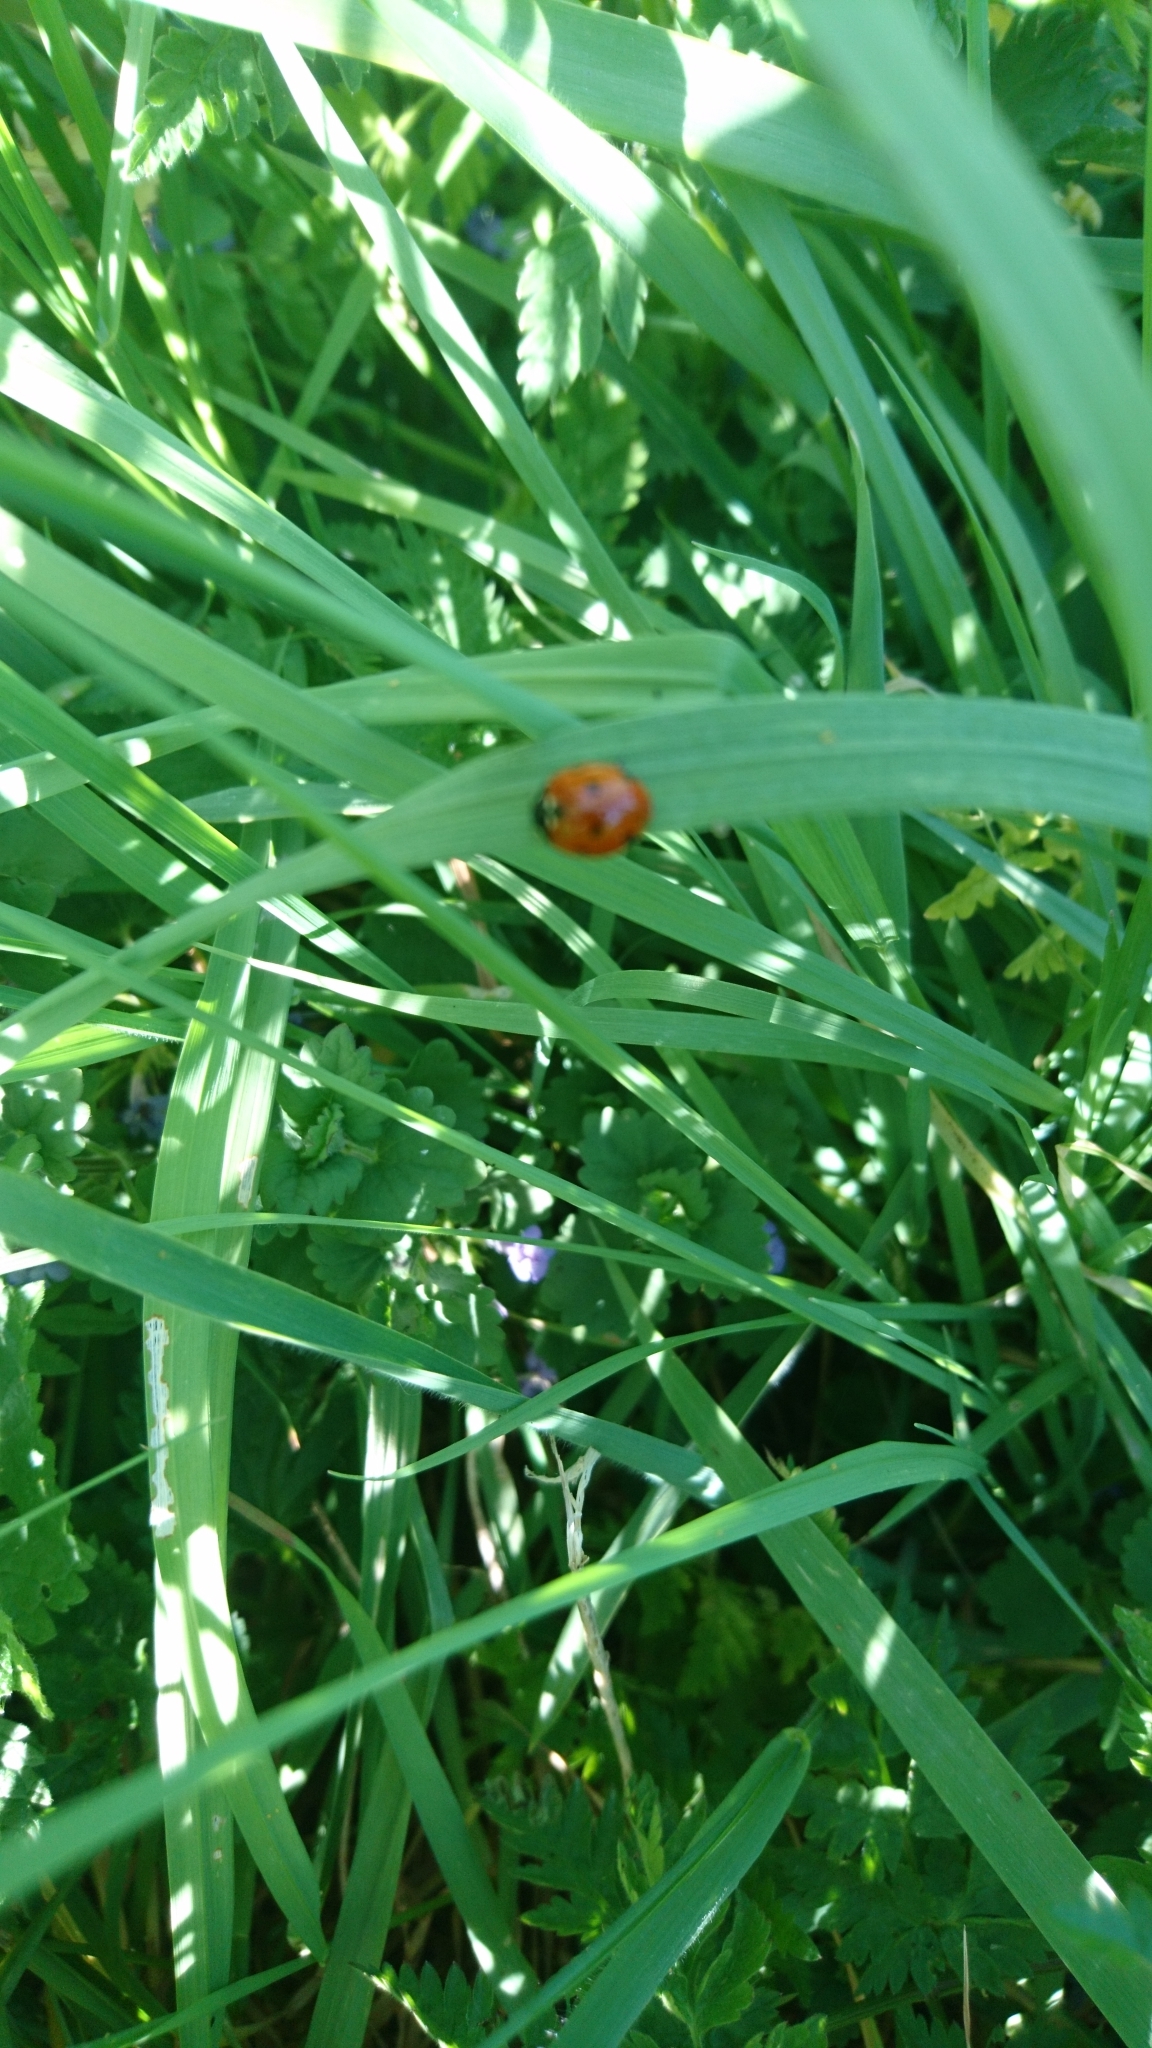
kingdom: Animalia
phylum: Arthropoda
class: Insecta
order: Coleoptera
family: Coccinellidae
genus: Coccinella
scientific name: Coccinella septempunctata
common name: Sevenspotted lady beetle
